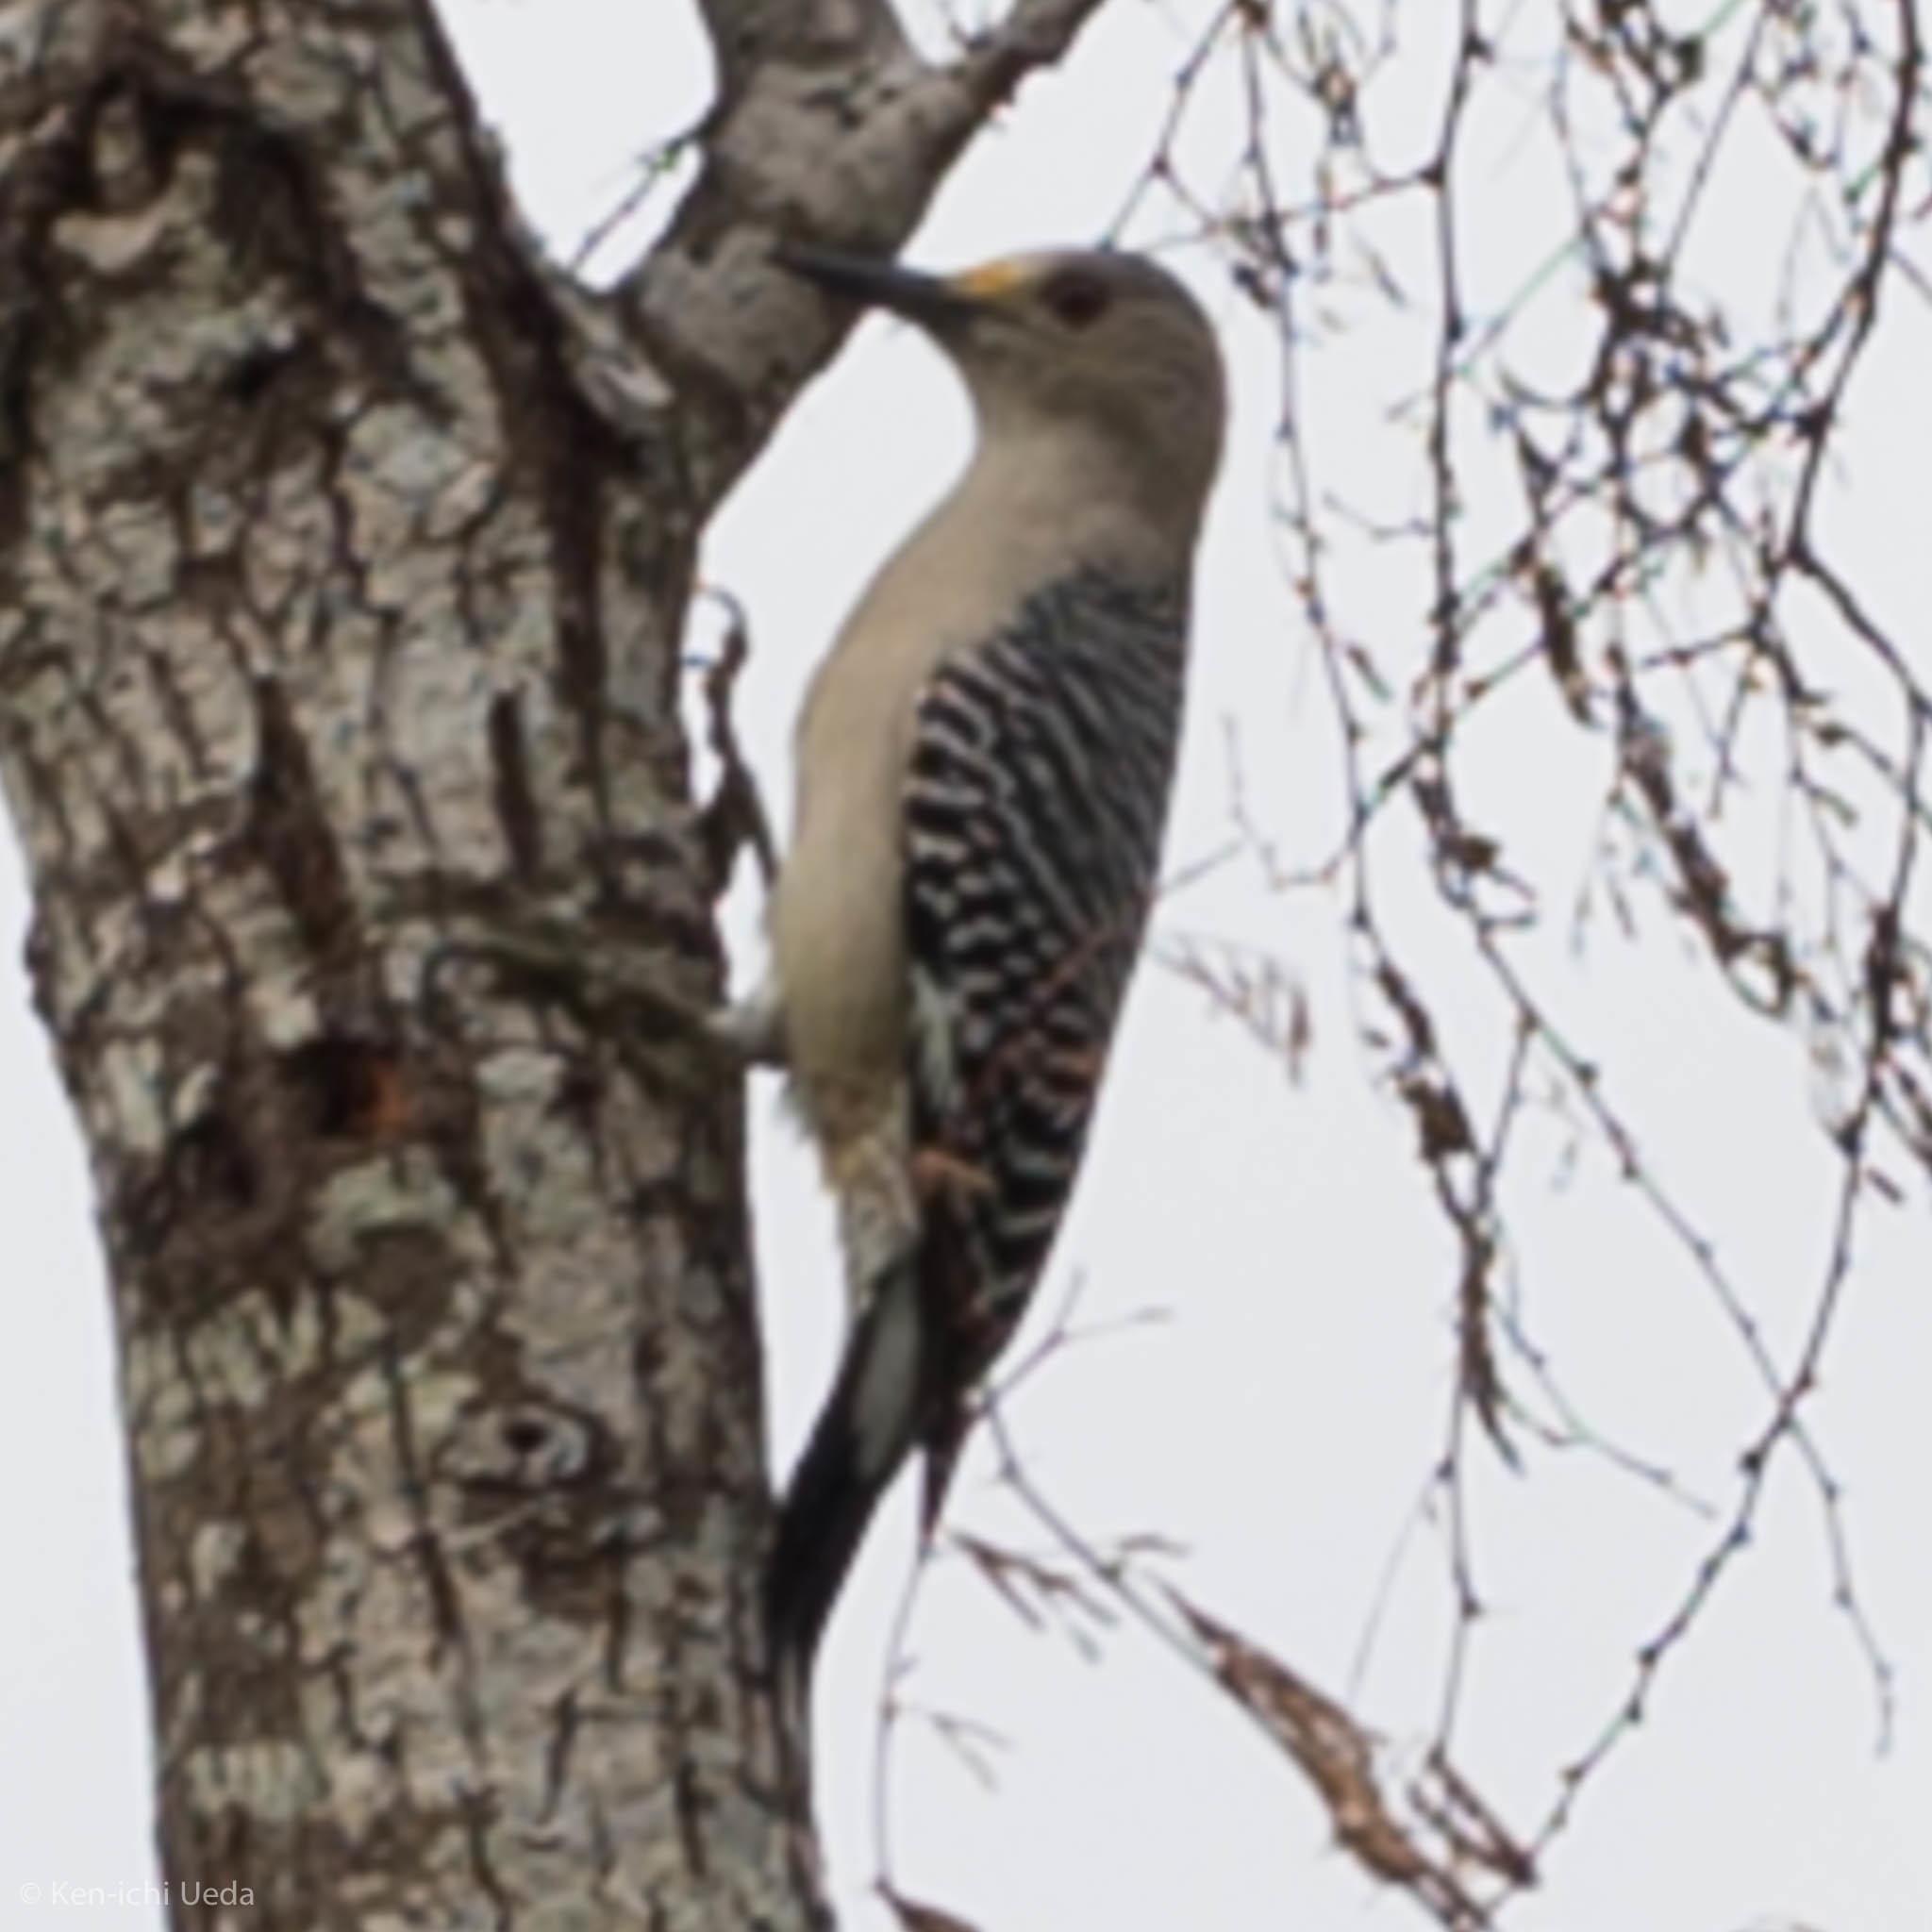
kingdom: Animalia
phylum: Chordata
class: Aves
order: Piciformes
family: Picidae
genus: Melanerpes
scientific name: Melanerpes aurifrons
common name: Golden-fronted woodpecker
